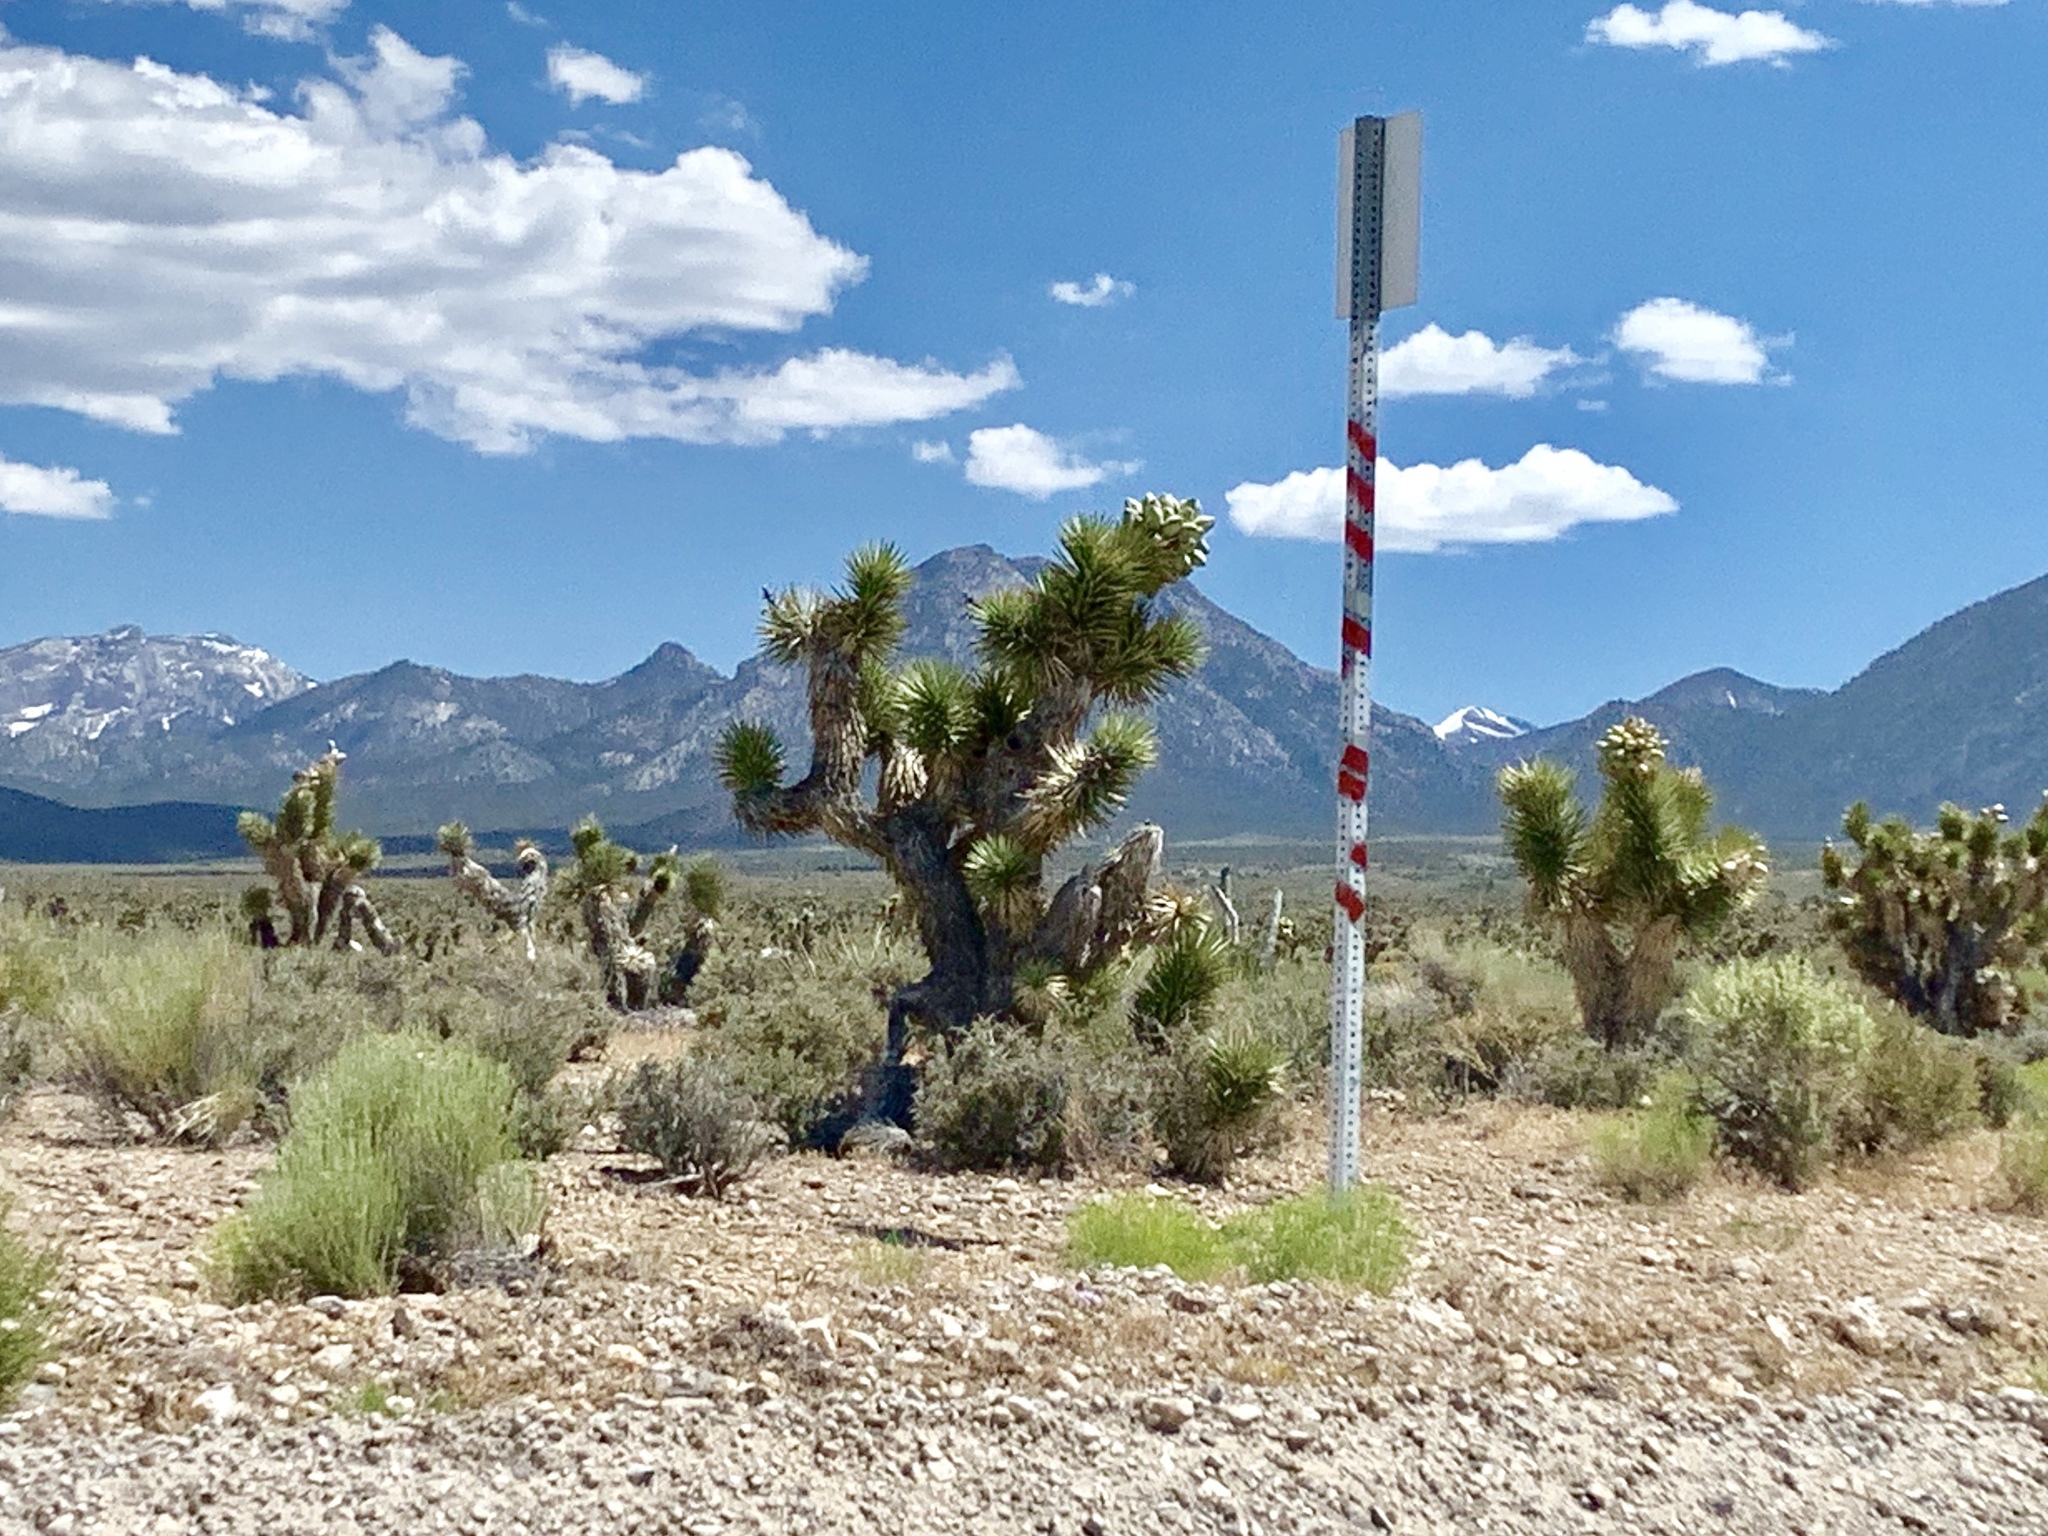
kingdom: Plantae
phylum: Tracheophyta
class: Liliopsida
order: Asparagales
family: Asparagaceae
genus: Yucca
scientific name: Yucca brevifolia
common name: Joshua tree
